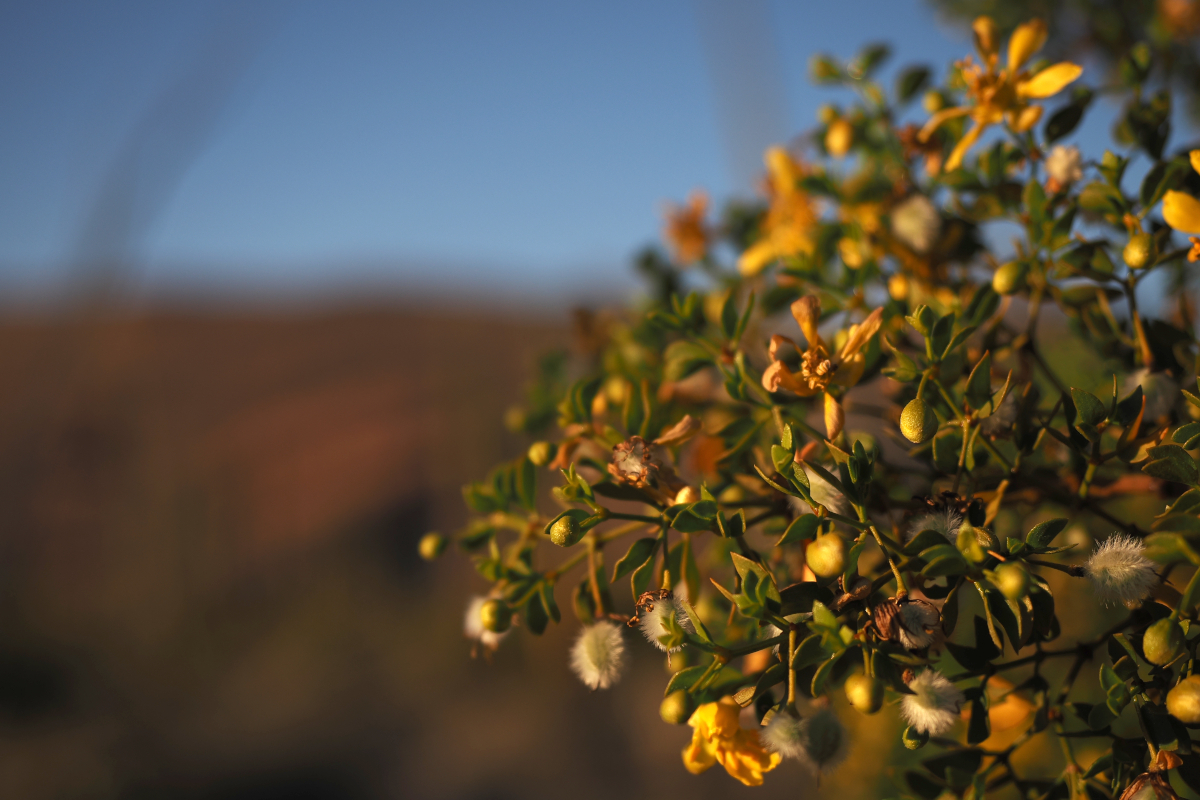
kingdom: Plantae
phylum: Tracheophyta
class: Magnoliopsida
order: Zygophyllales
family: Zygophyllaceae
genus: Larrea
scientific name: Larrea tridentata
